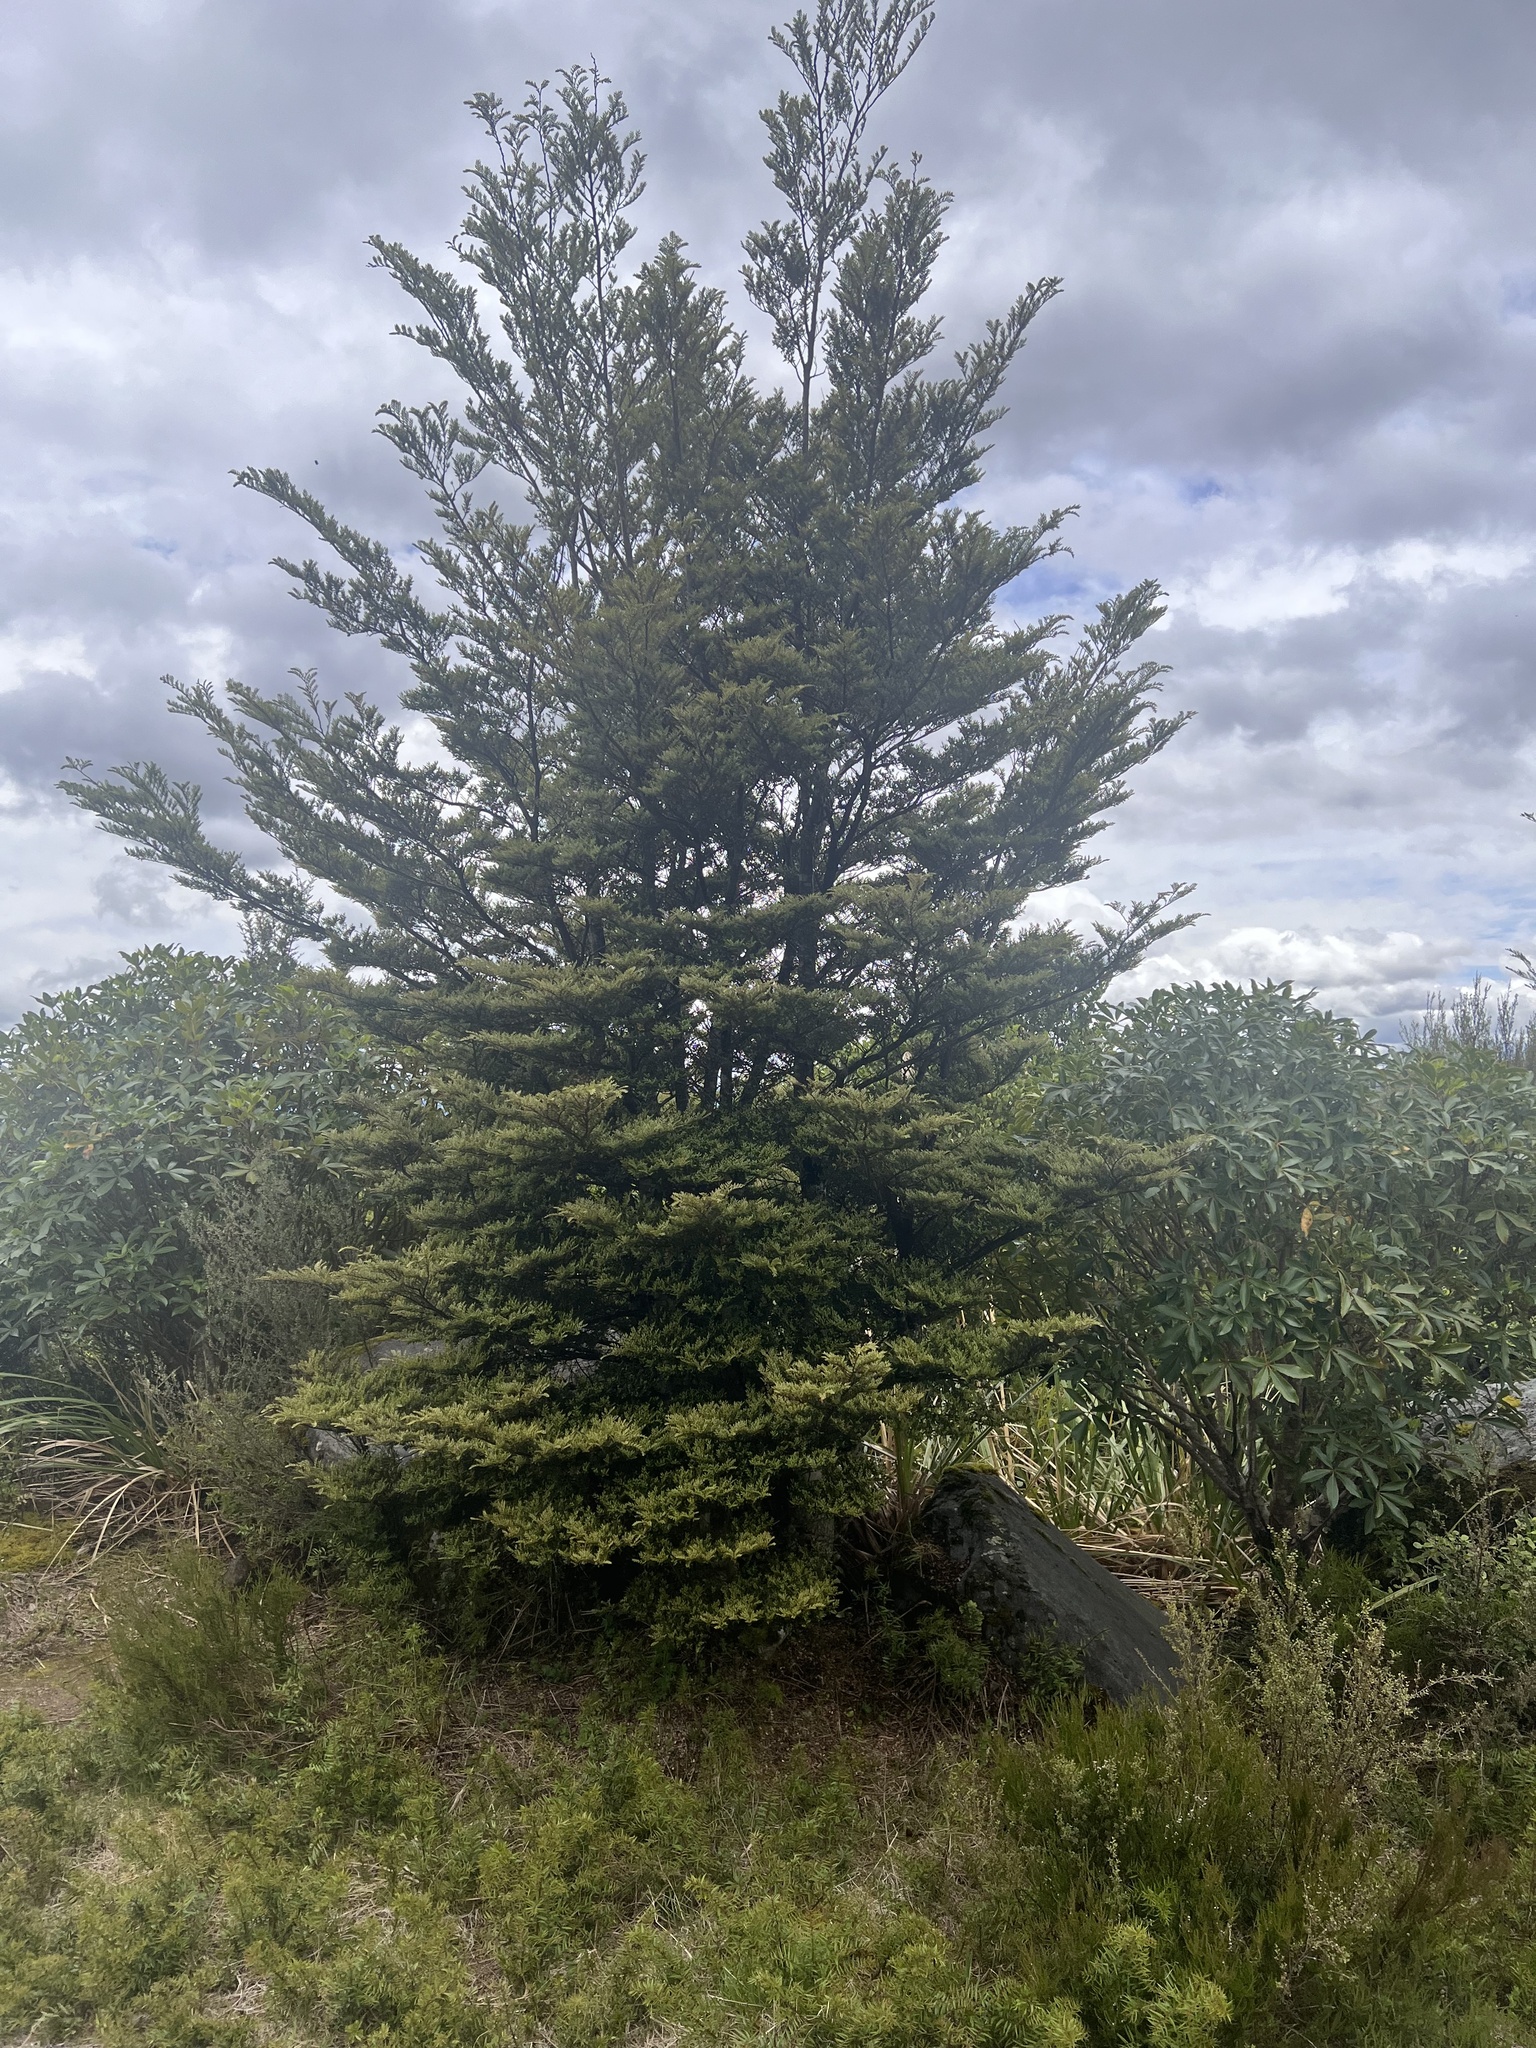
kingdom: Plantae
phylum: Tracheophyta
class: Magnoliopsida
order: Fagales
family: Nothofagaceae
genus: Nothofagus
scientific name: Nothofagus cliffortioides
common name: Mountain beech
